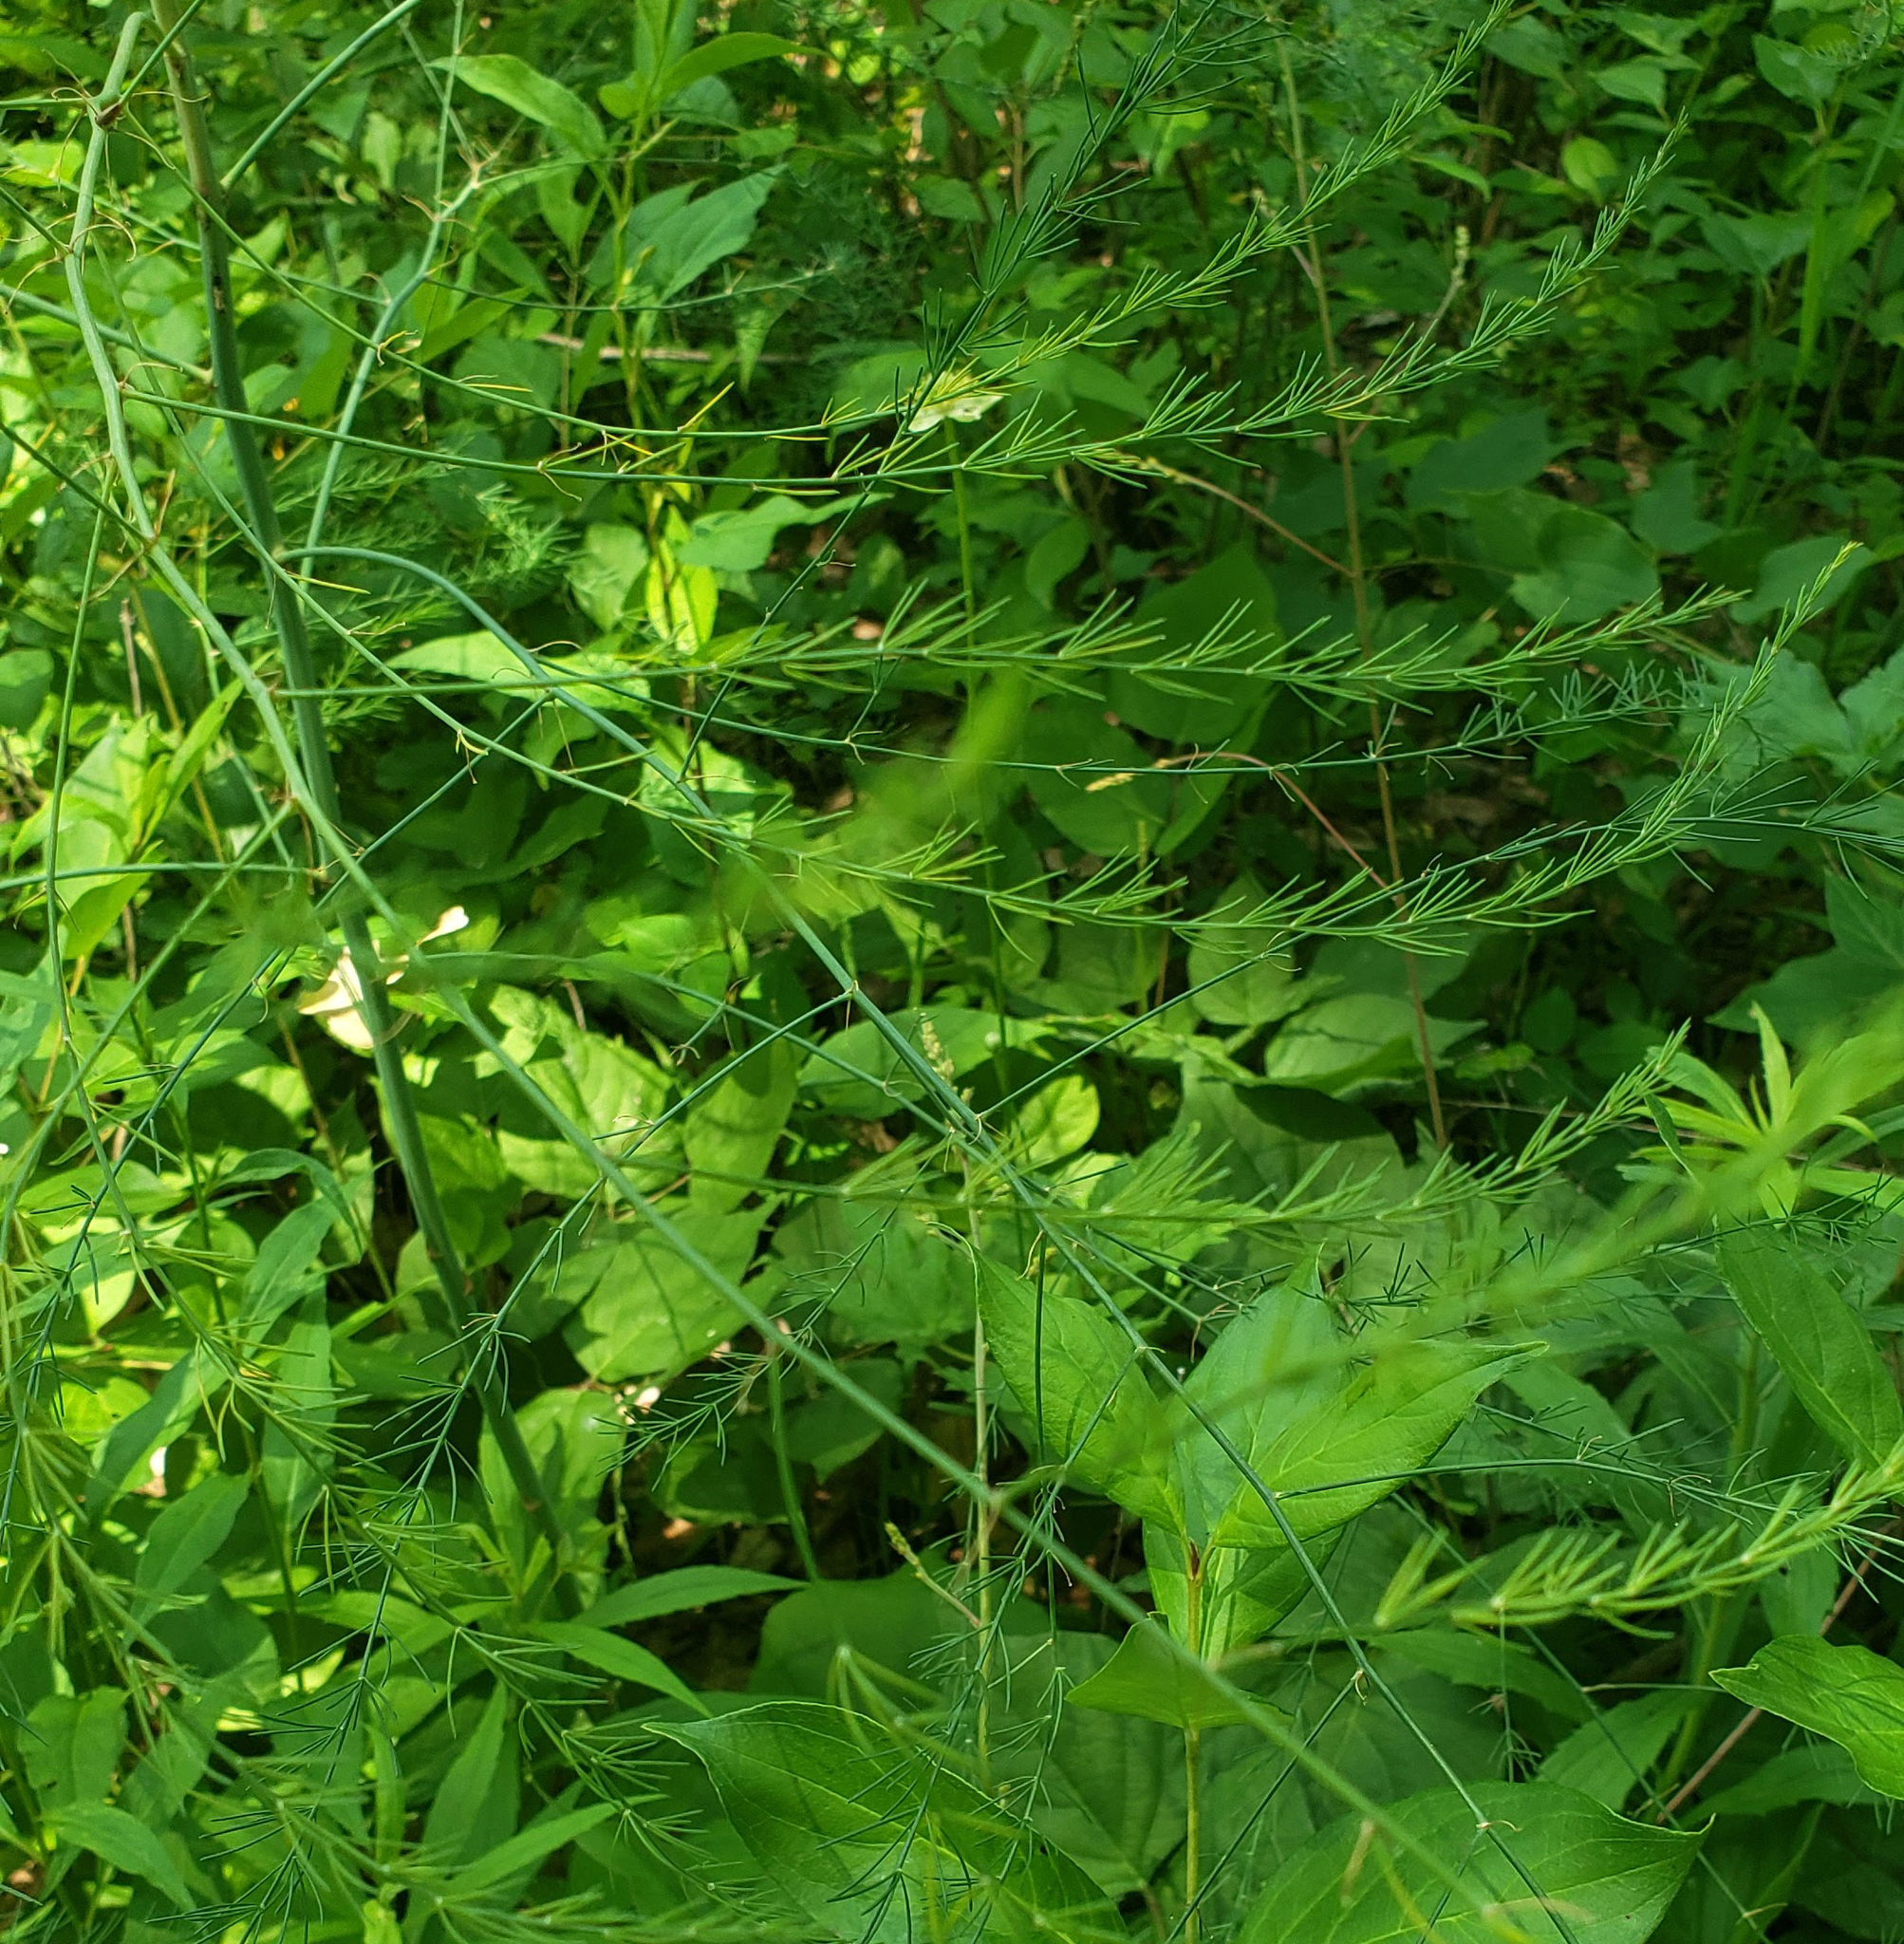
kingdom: Plantae
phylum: Tracheophyta
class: Liliopsida
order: Asparagales
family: Asparagaceae
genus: Asparagus
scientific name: Asparagus officinalis
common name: Garden asparagus
